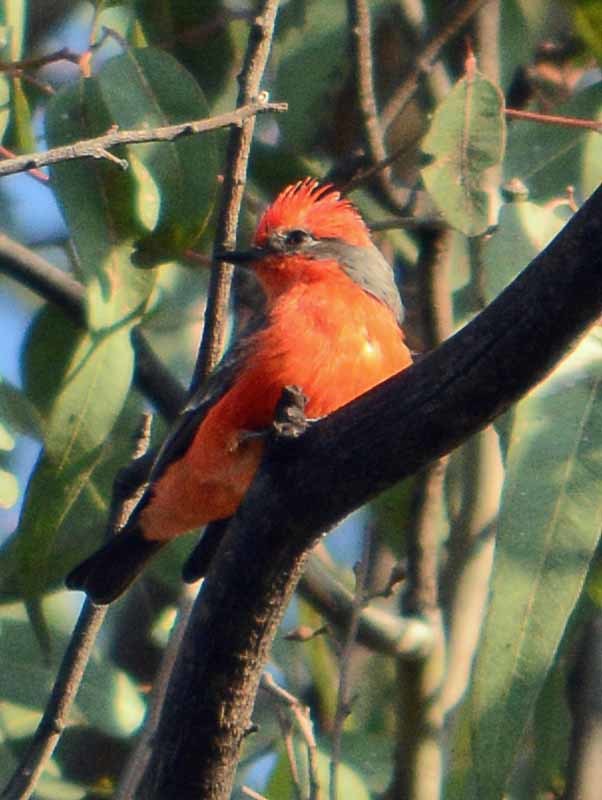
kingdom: Animalia
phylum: Chordata
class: Aves
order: Passeriformes
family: Tyrannidae
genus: Pyrocephalus
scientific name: Pyrocephalus rubinus
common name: Vermilion flycatcher
